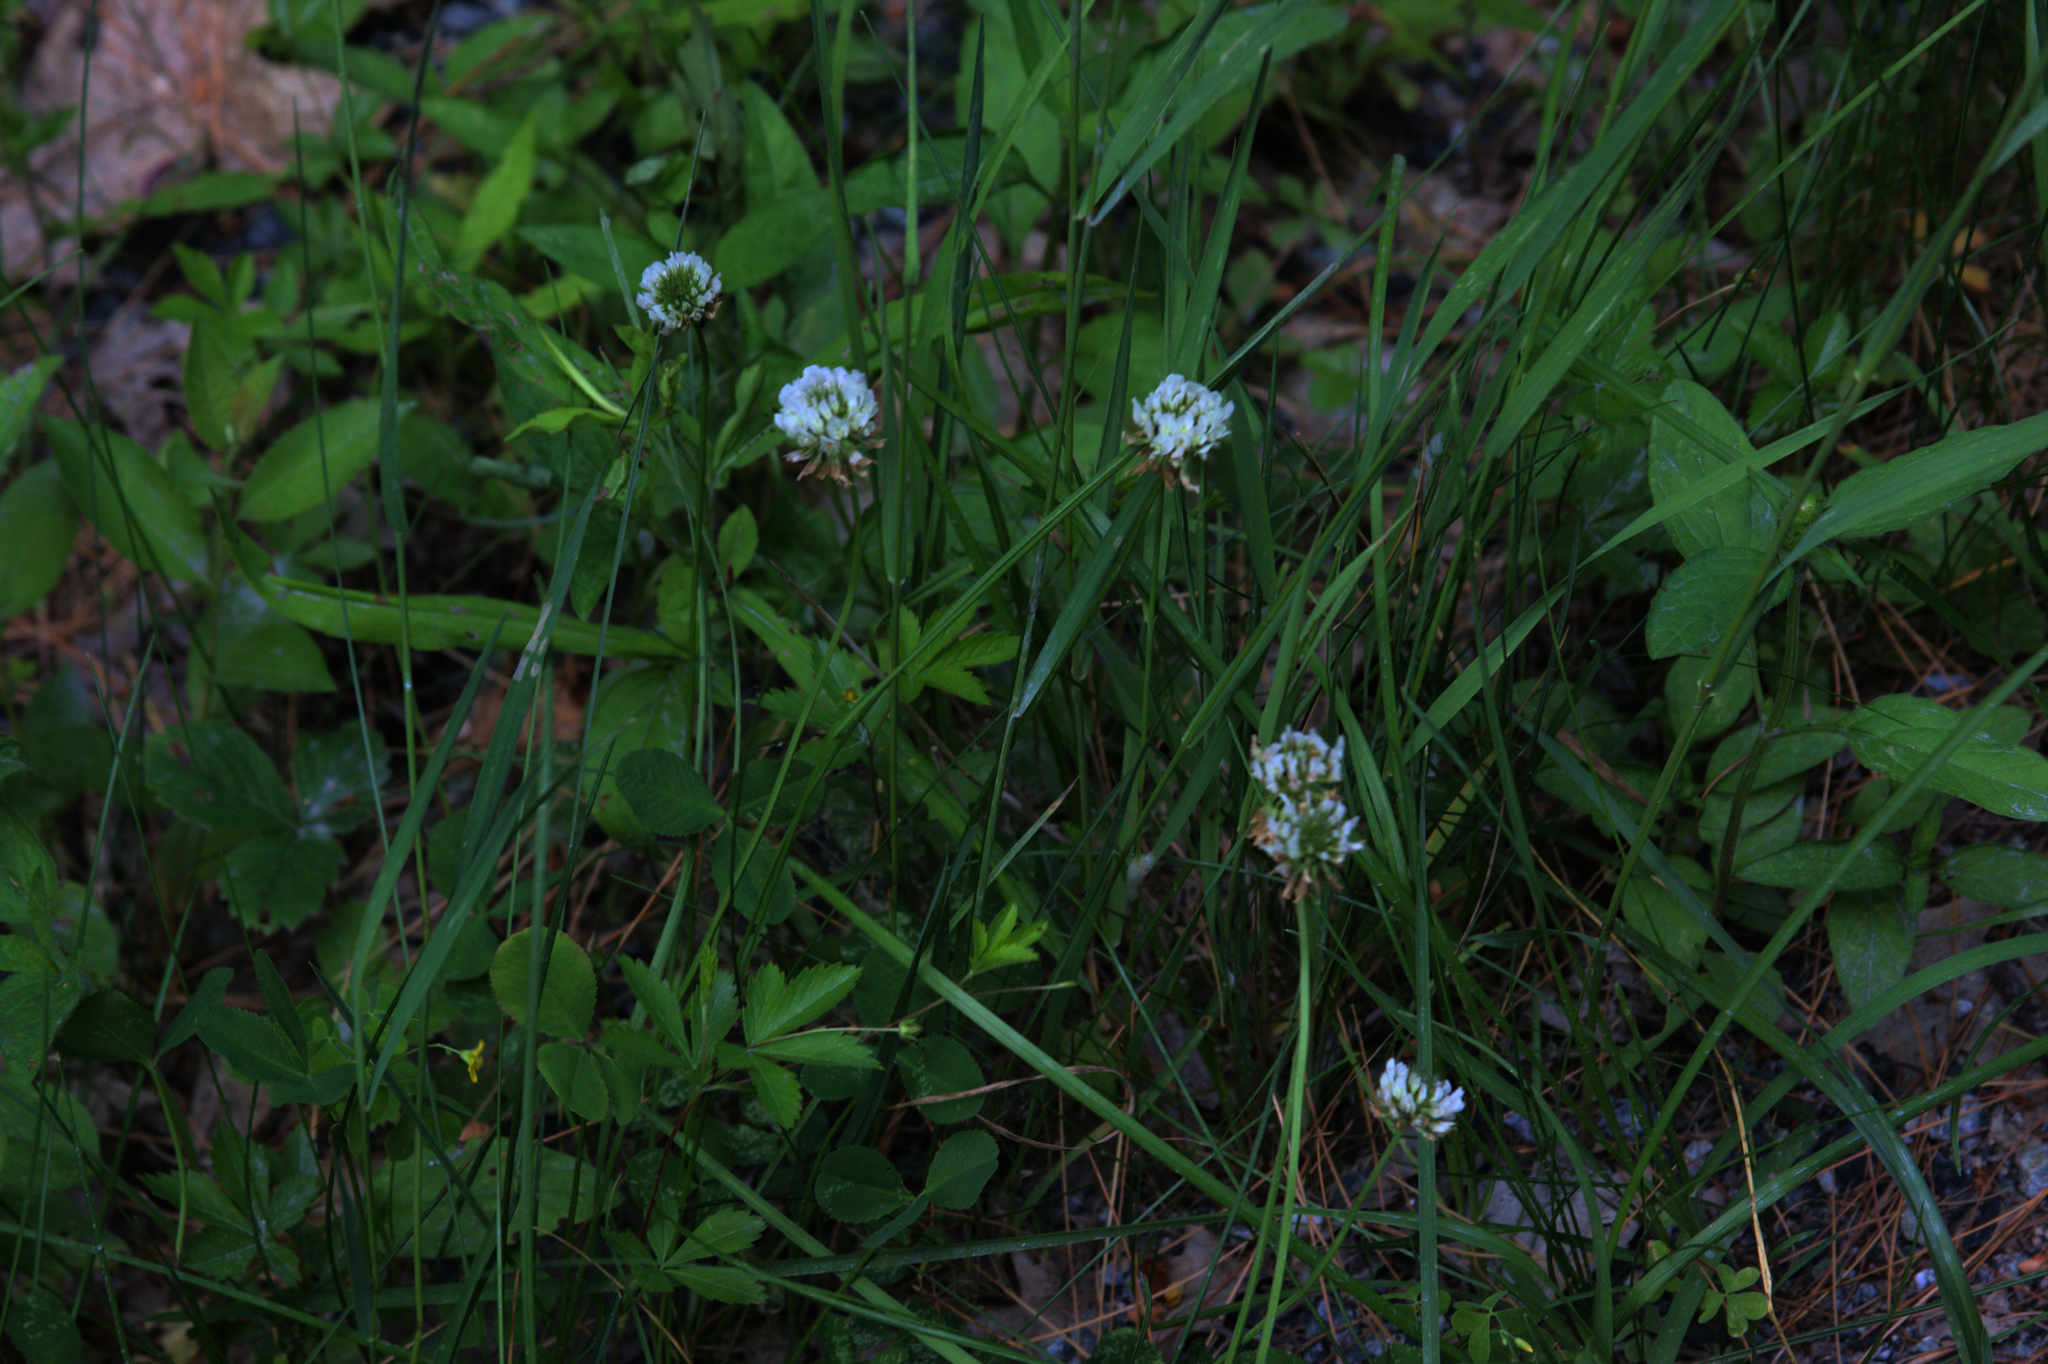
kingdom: Plantae
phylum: Tracheophyta
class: Magnoliopsida
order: Fabales
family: Fabaceae
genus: Trifolium
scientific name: Trifolium repens
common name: White clover
